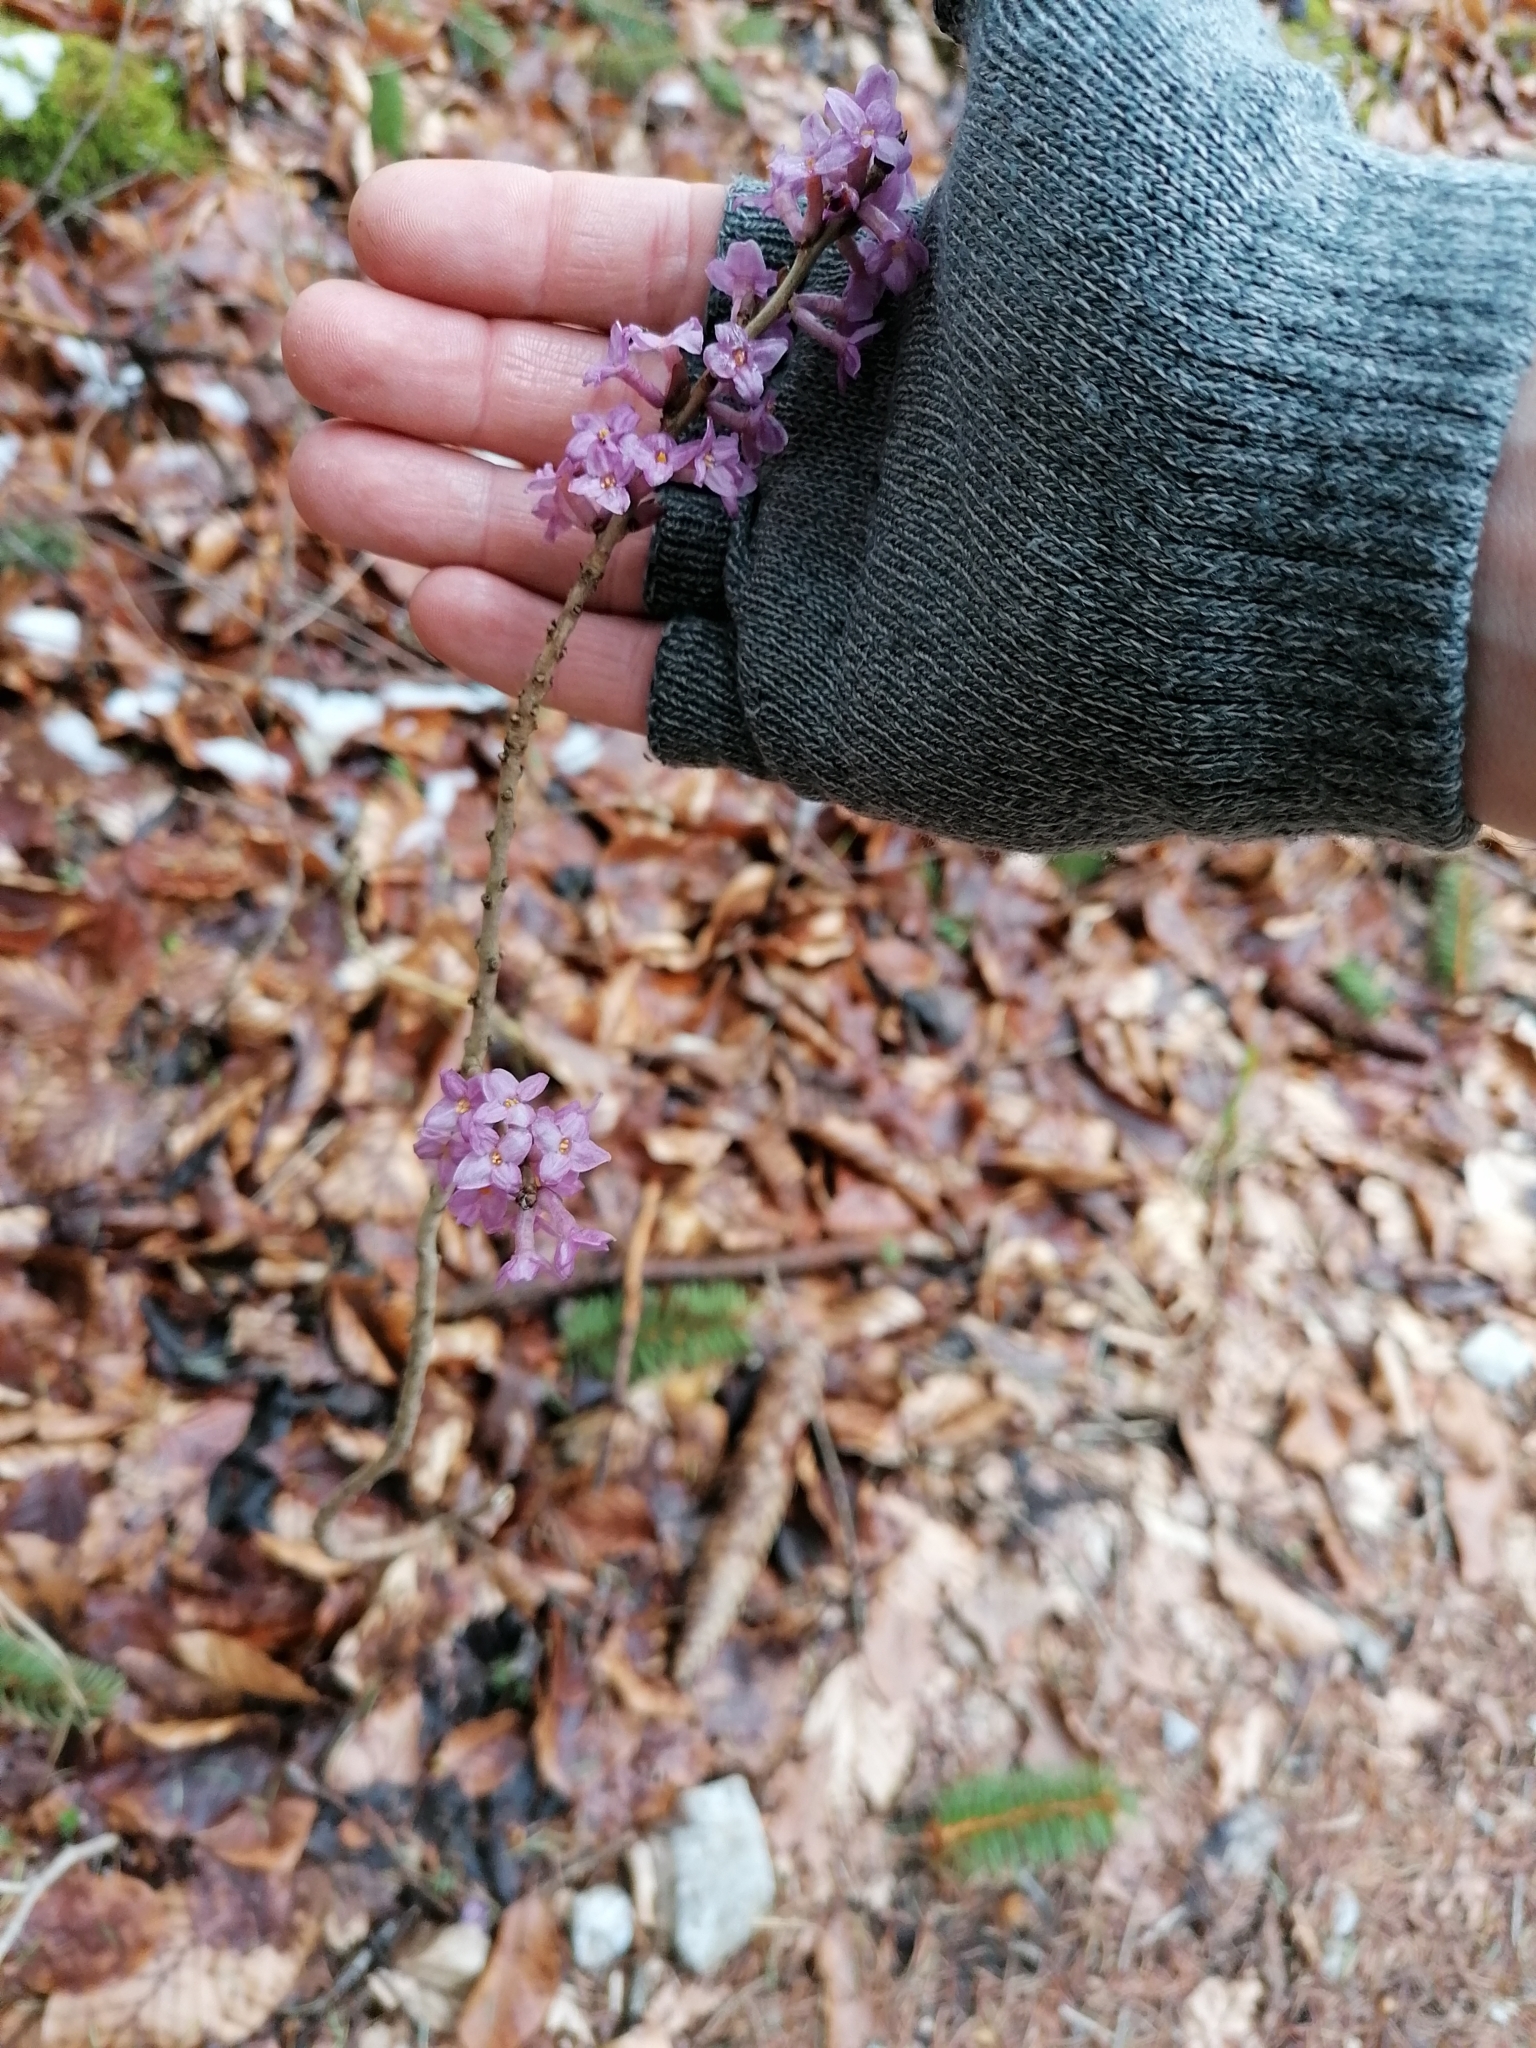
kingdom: Plantae
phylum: Tracheophyta
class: Magnoliopsida
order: Malvales
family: Thymelaeaceae
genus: Daphne
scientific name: Daphne mezereum
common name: Mezereon
